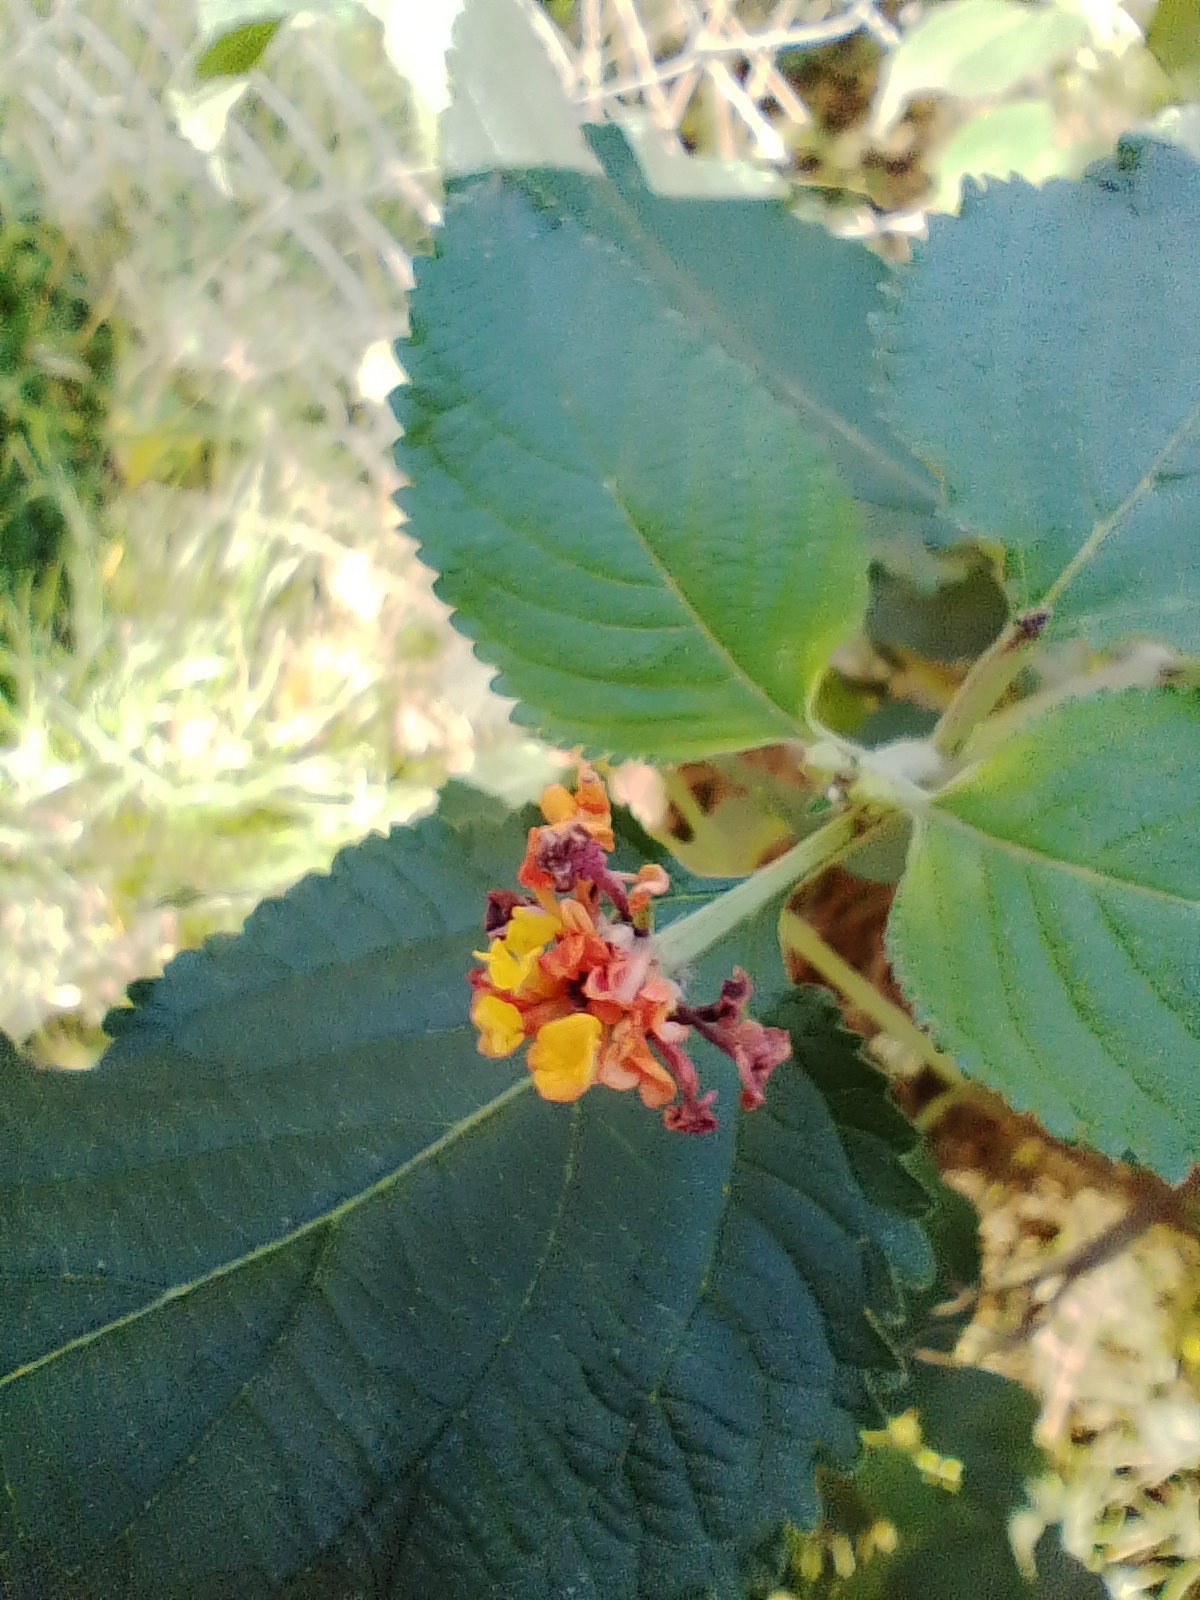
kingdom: Plantae
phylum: Tracheophyta
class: Magnoliopsida
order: Lamiales
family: Verbenaceae
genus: Lantana
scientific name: Lantana camara
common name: Lantana
